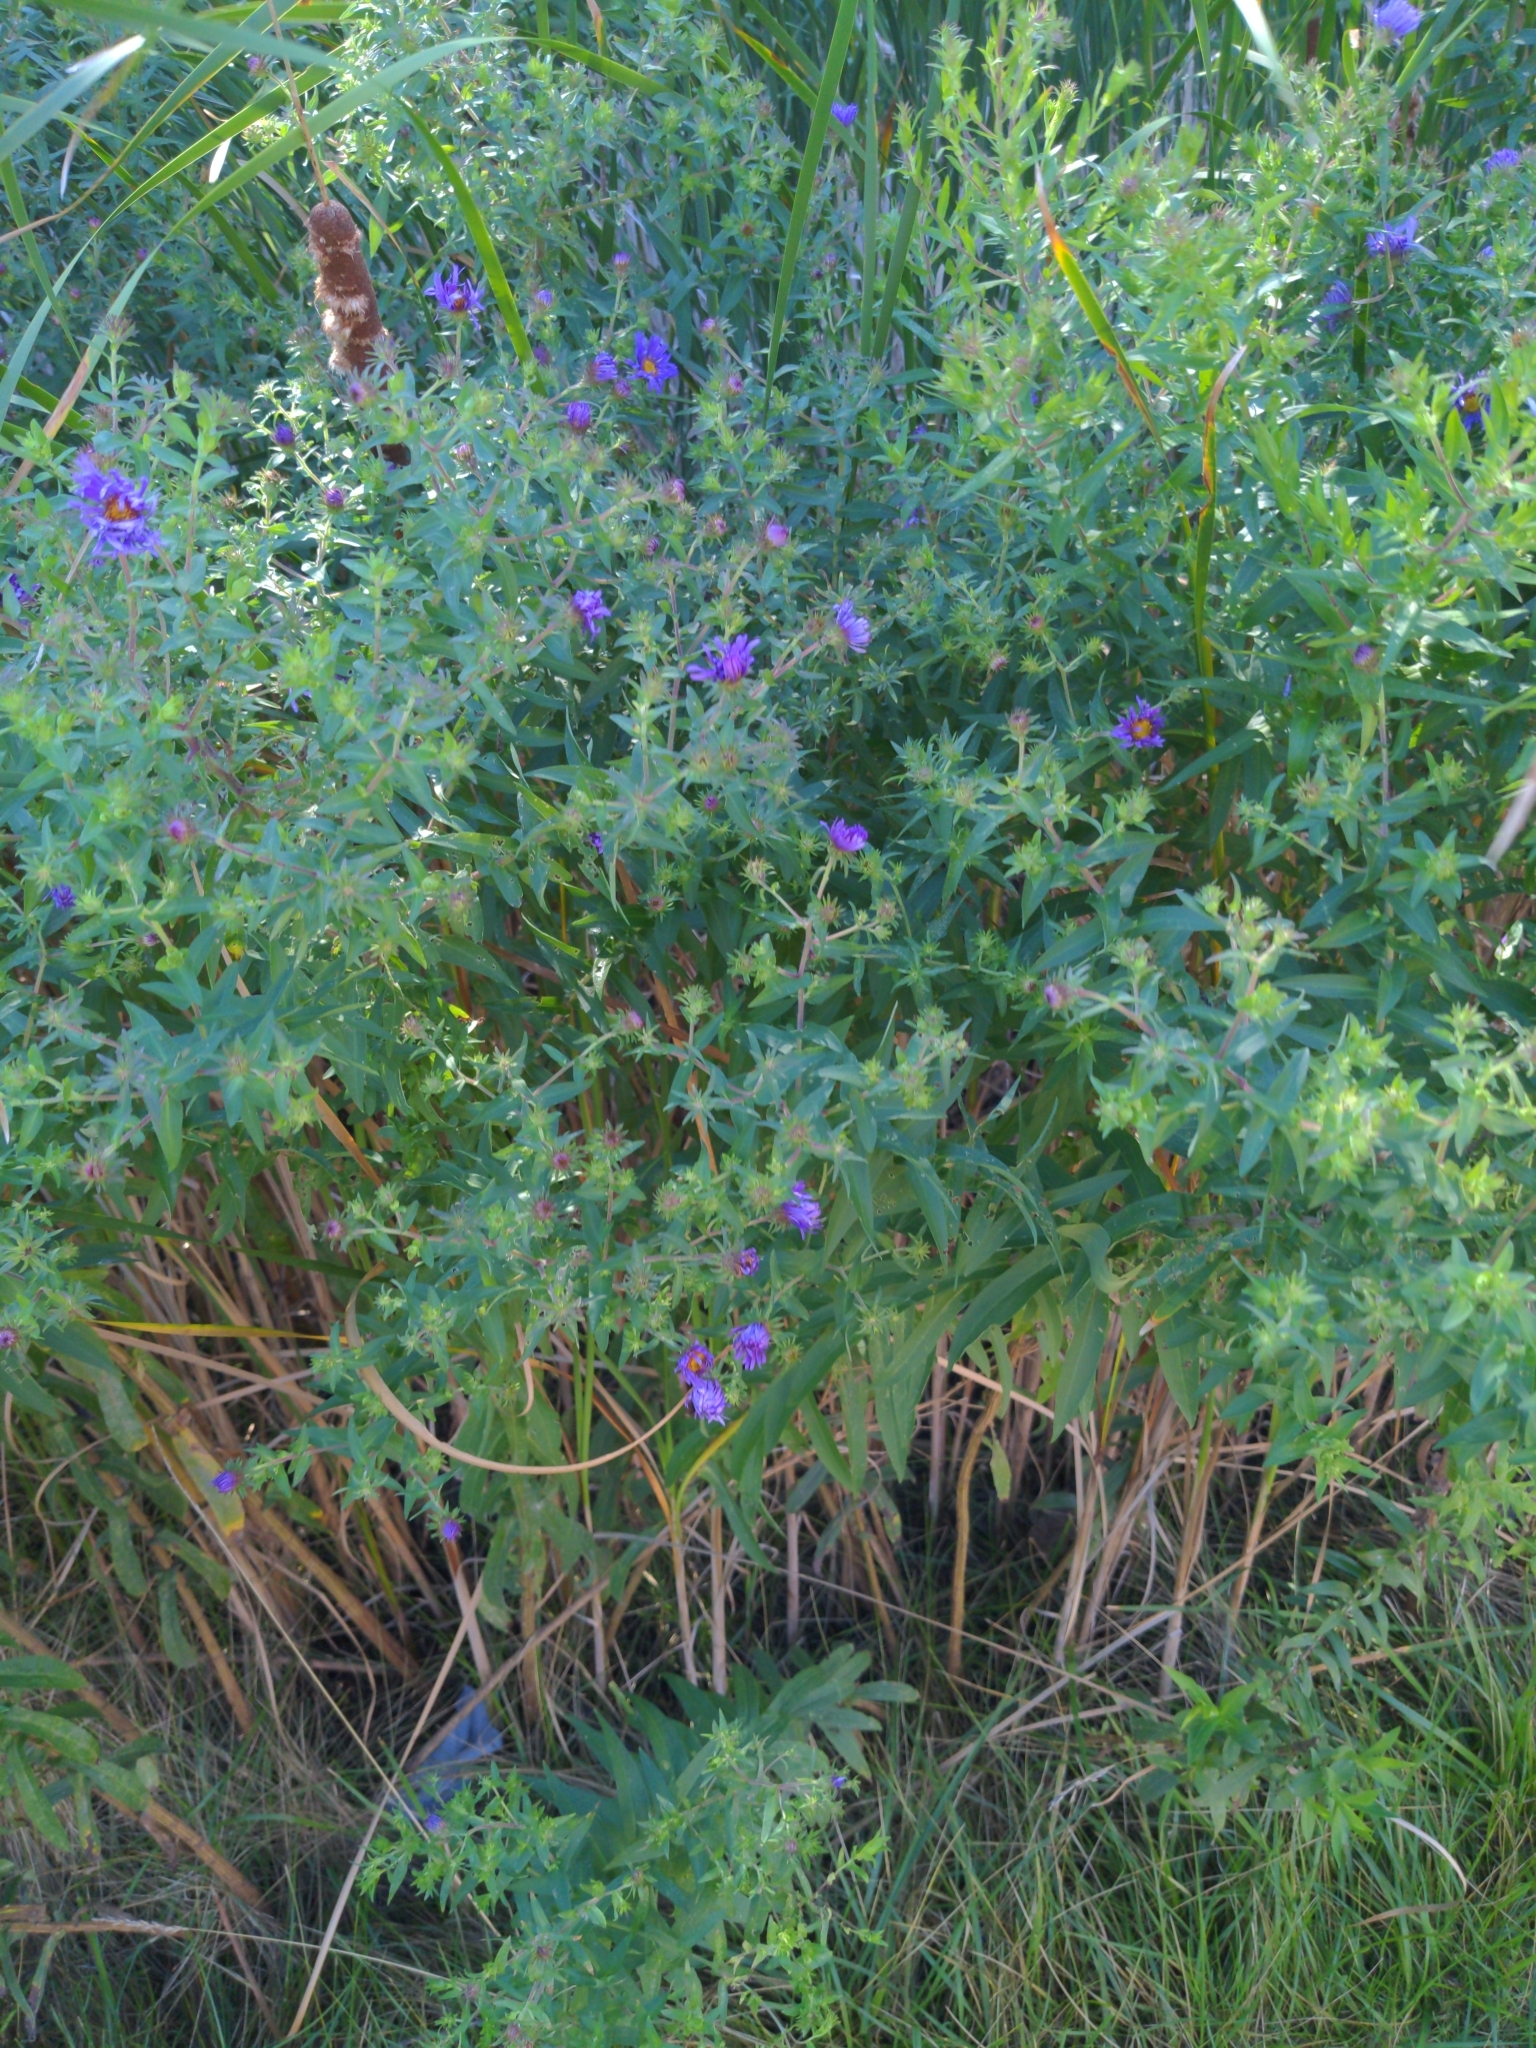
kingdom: Plantae
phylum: Tracheophyta
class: Magnoliopsida
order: Asterales
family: Asteraceae
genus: Symphyotrichum
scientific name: Symphyotrichum novae-angliae
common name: Michaelmas daisy
